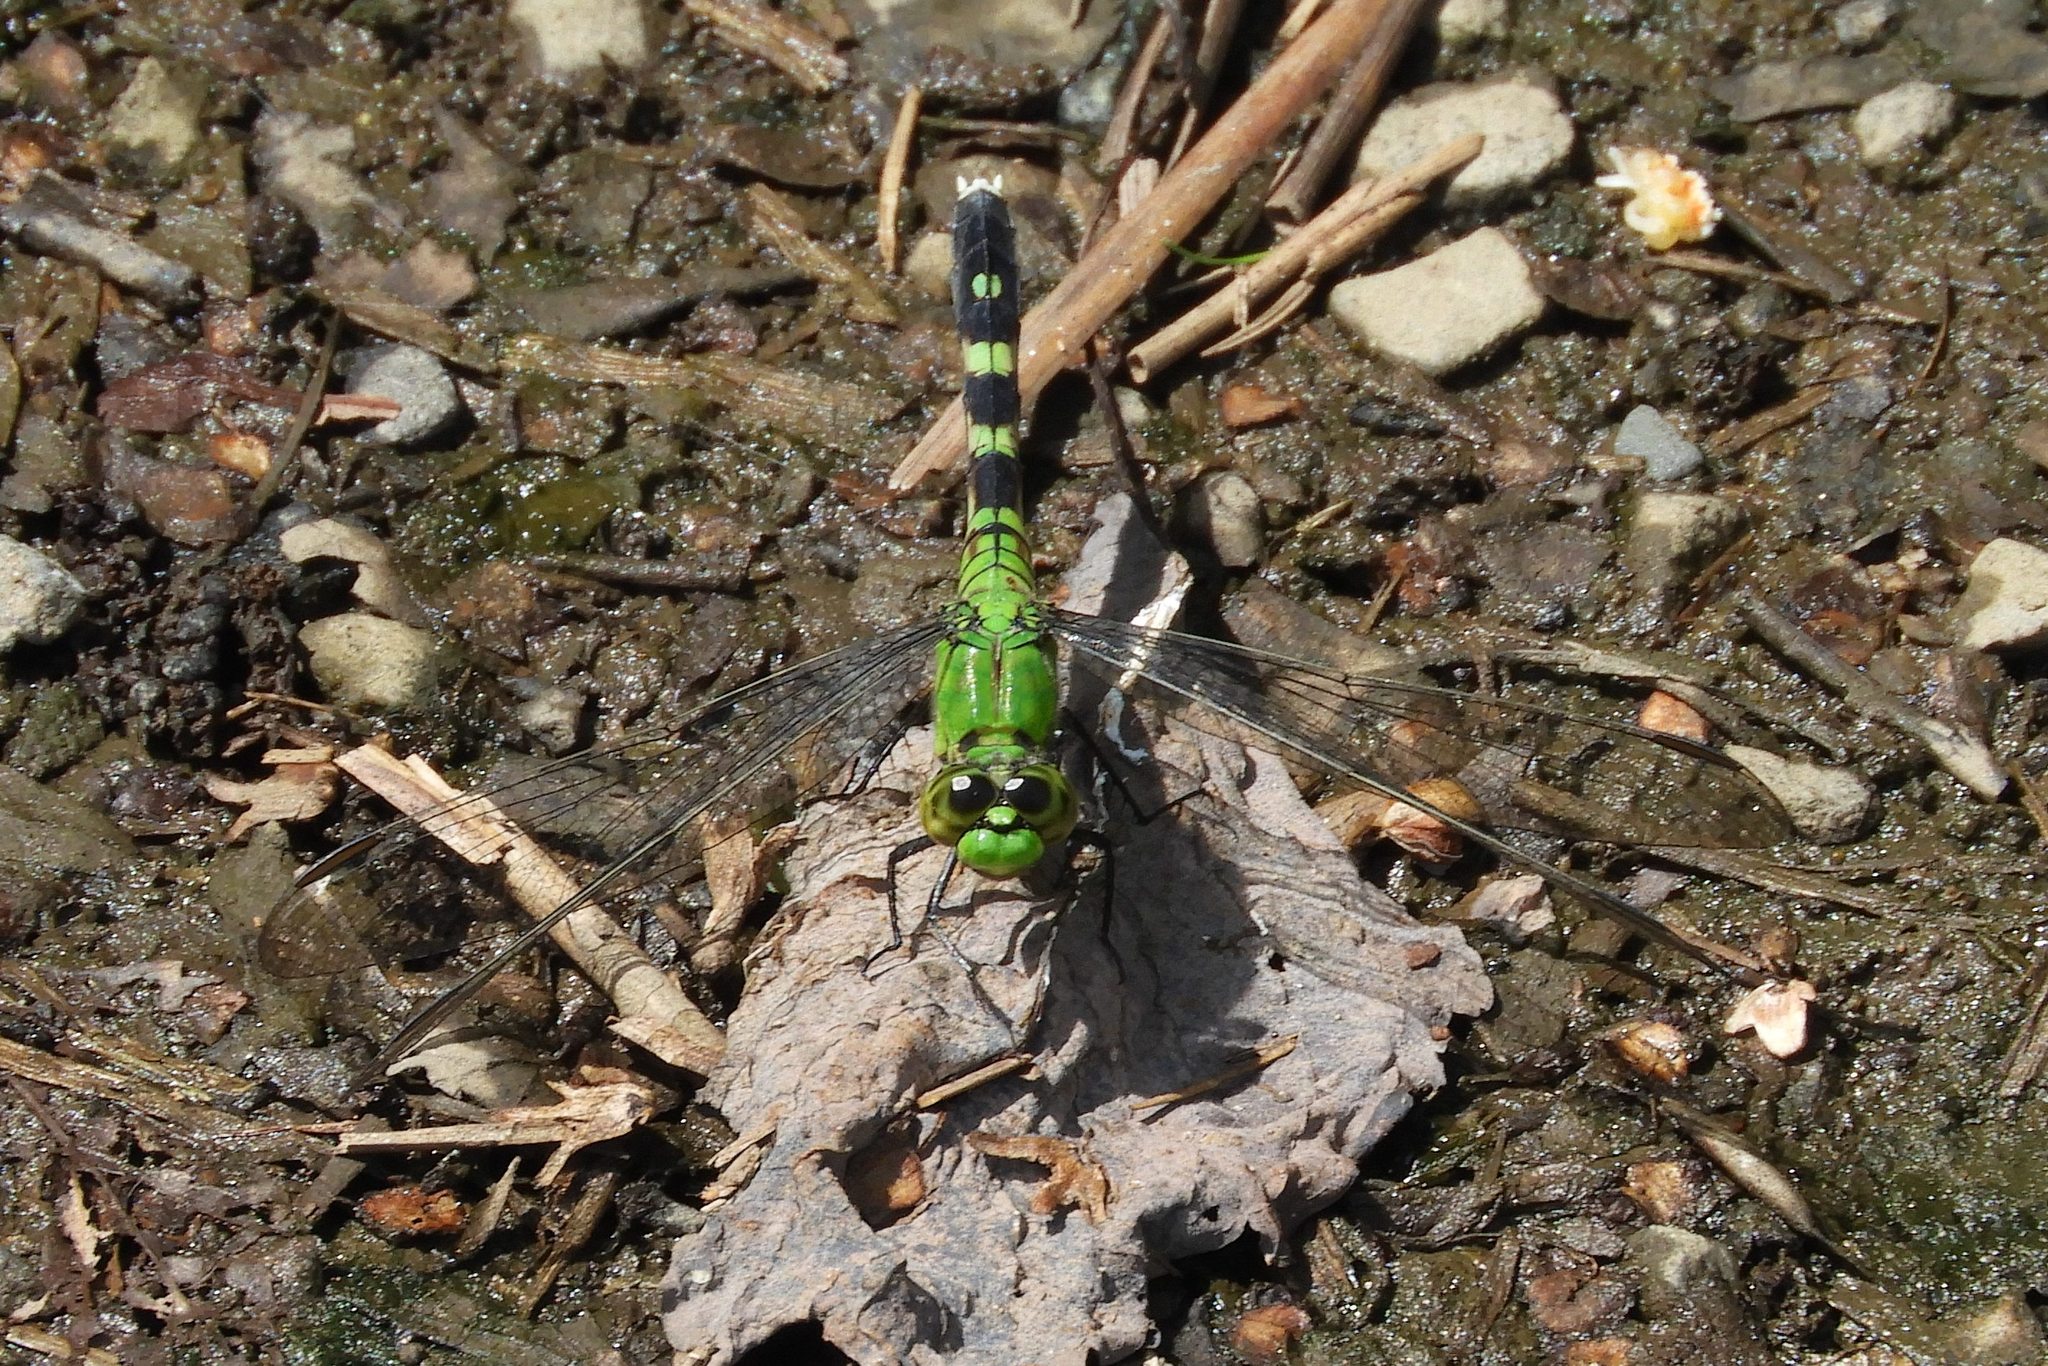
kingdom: Animalia
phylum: Arthropoda
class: Insecta
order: Odonata
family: Libellulidae
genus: Erythemis
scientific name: Erythemis simplicicollis
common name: Eastern pondhawk
